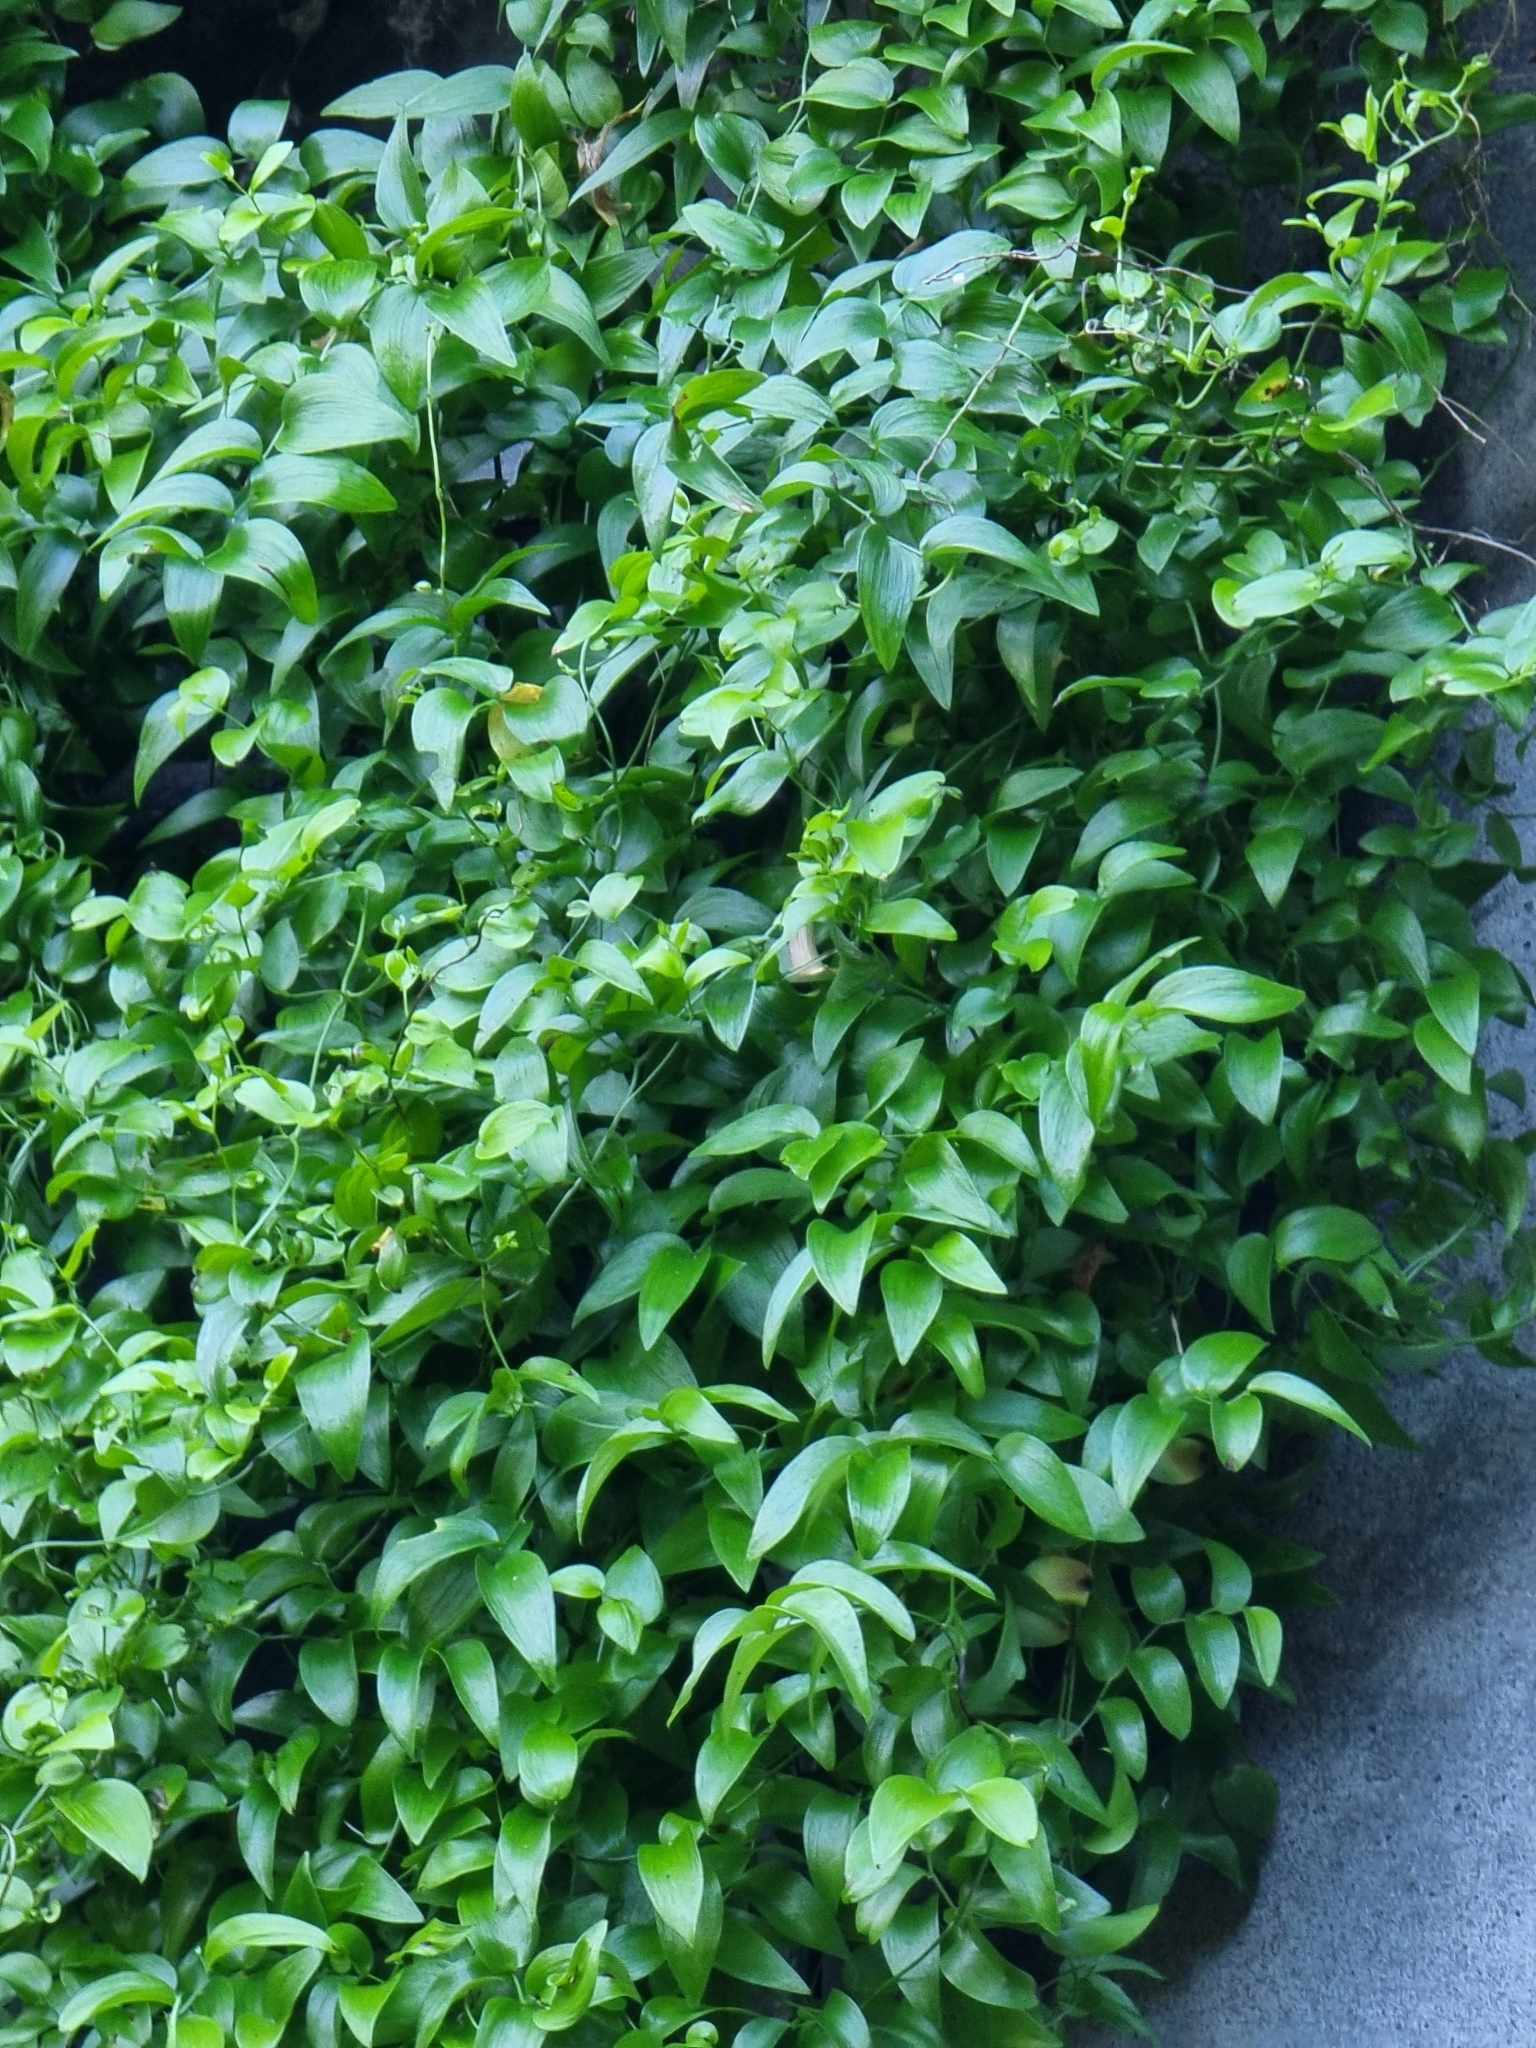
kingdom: Plantae
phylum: Tracheophyta
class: Liliopsida
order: Asparagales
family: Asparagaceae
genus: Asparagus
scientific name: Asparagus asparagoides
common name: African asparagus fern
